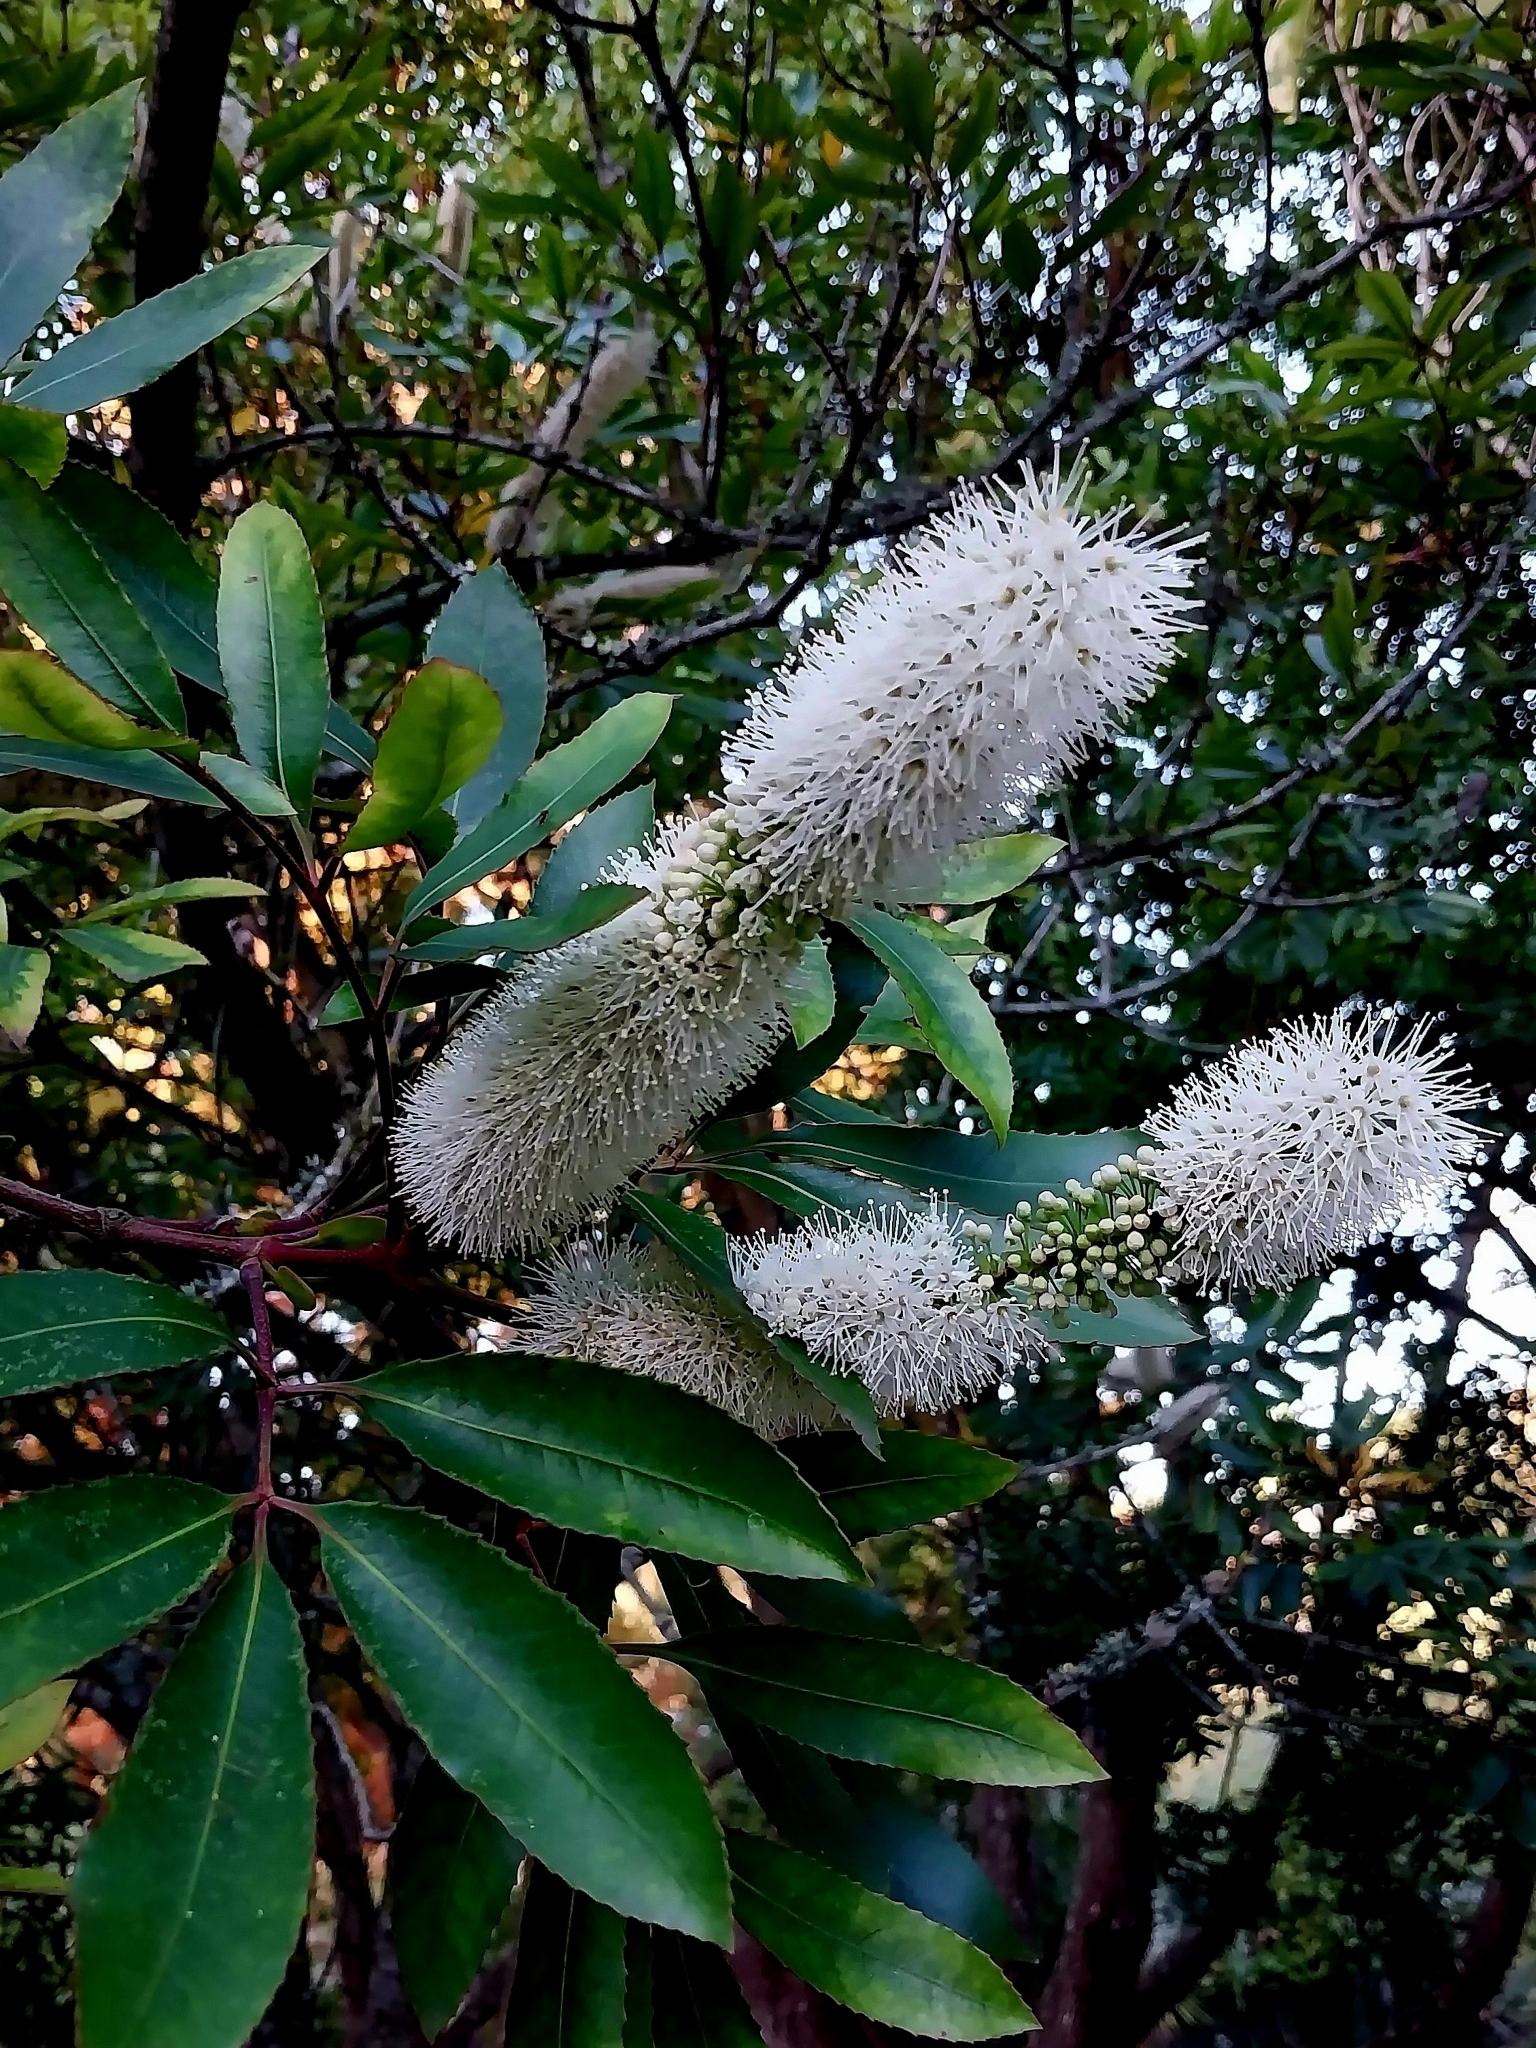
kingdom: Plantae
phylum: Tracheophyta
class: Magnoliopsida
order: Oxalidales
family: Cunoniaceae
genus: Cunonia
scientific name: Cunonia capensis
